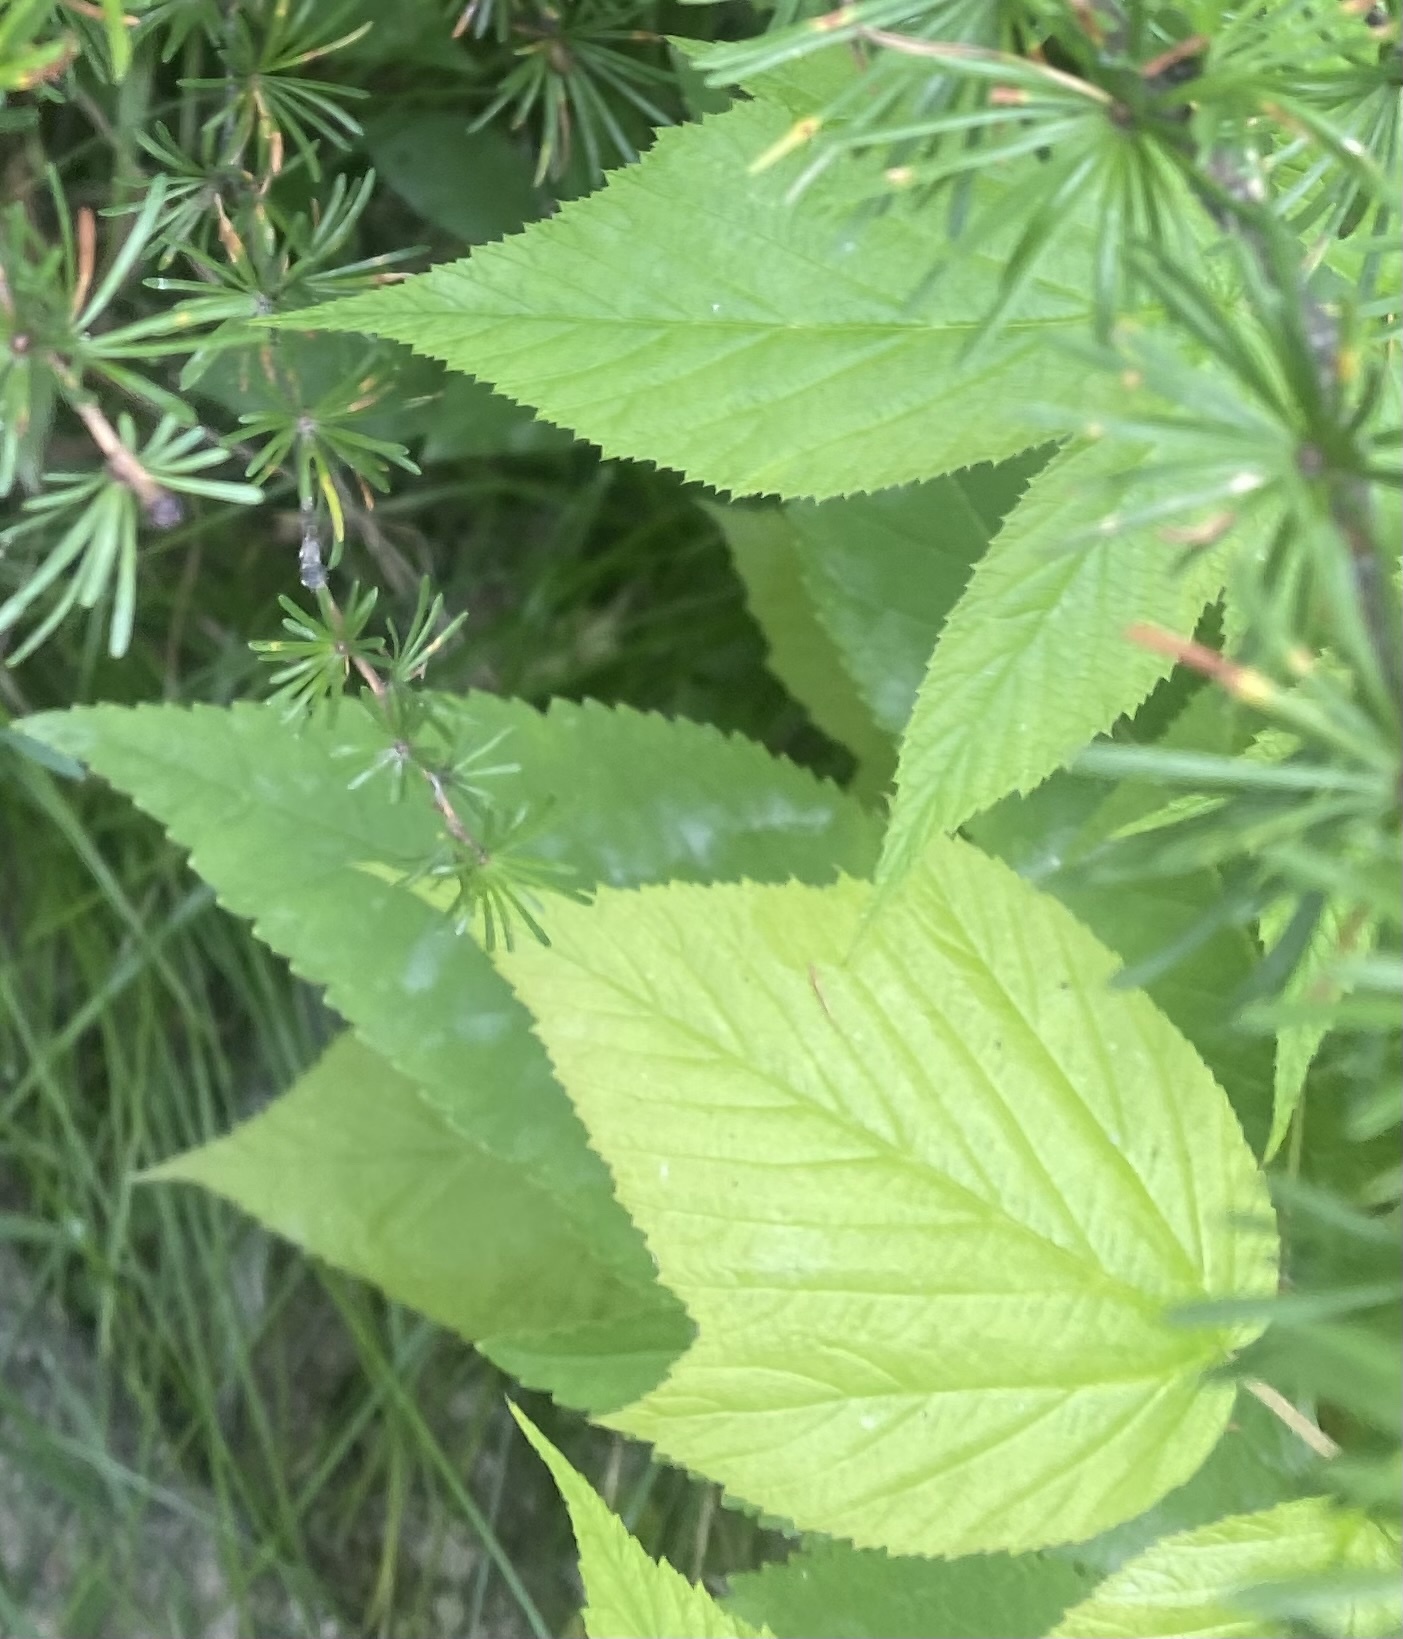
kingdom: Plantae
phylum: Tracheophyta
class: Magnoliopsida
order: Rosales
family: Rosaceae
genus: Rubus
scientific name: Rubus sachalinensis
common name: Red raspberry
